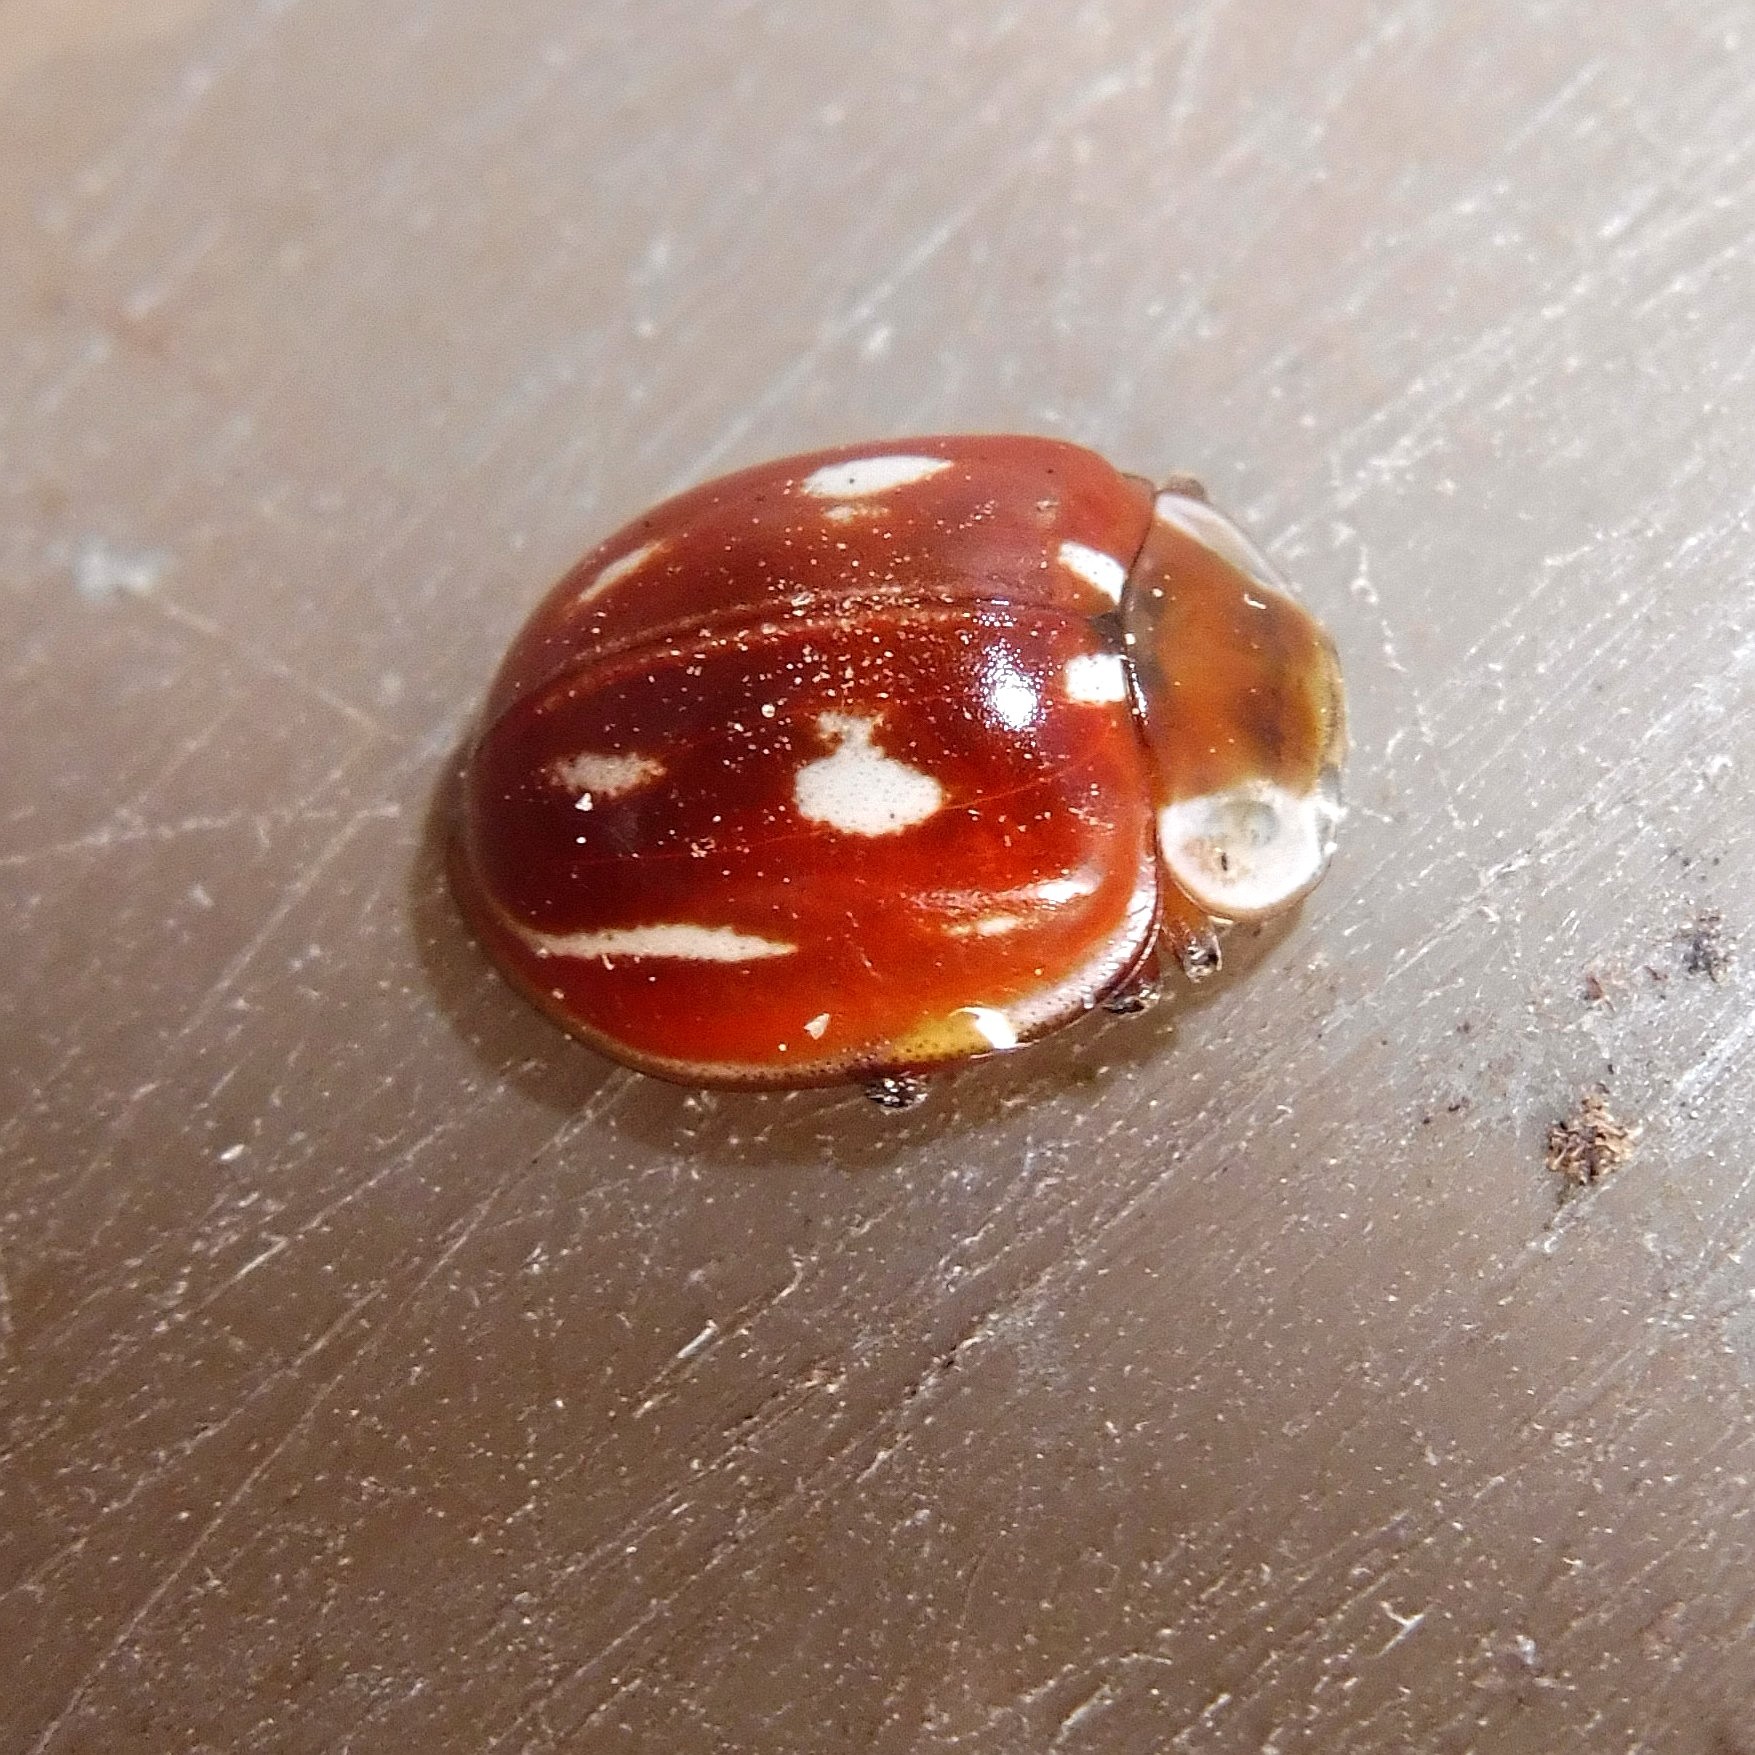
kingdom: Animalia
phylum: Arthropoda
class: Insecta
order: Coleoptera
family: Coccinellidae
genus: Myzia
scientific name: Myzia oblongoguttata
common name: Striped ladybird
